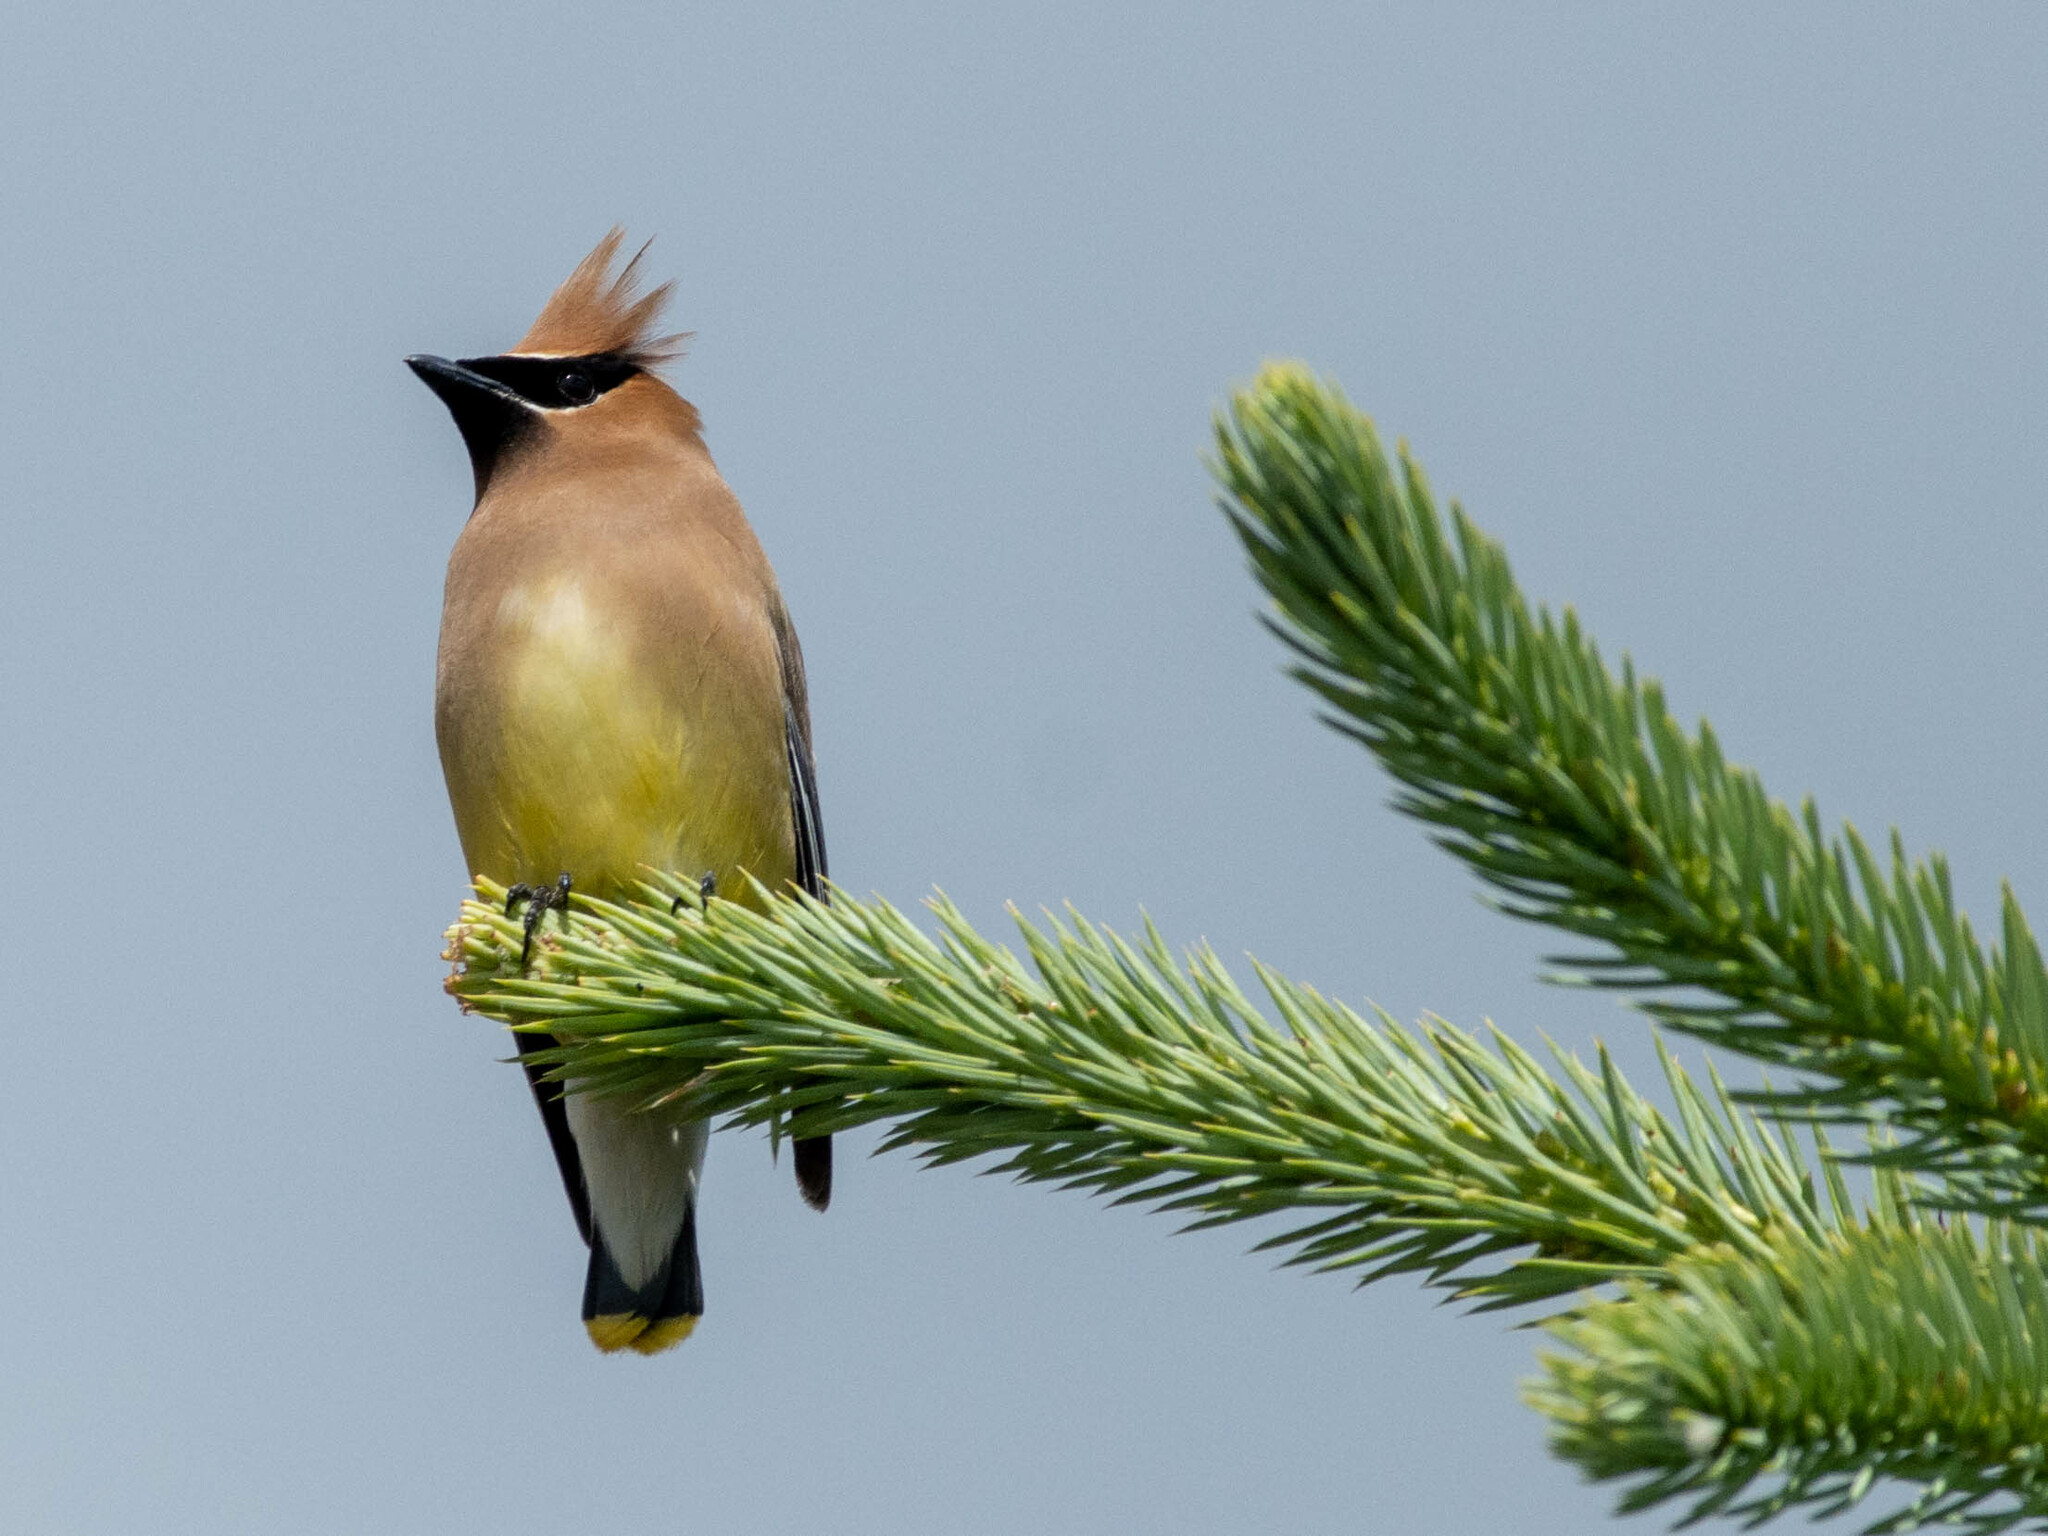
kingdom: Animalia
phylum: Chordata
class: Aves
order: Passeriformes
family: Bombycillidae
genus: Bombycilla
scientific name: Bombycilla cedrorum
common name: Cedar waxwing
